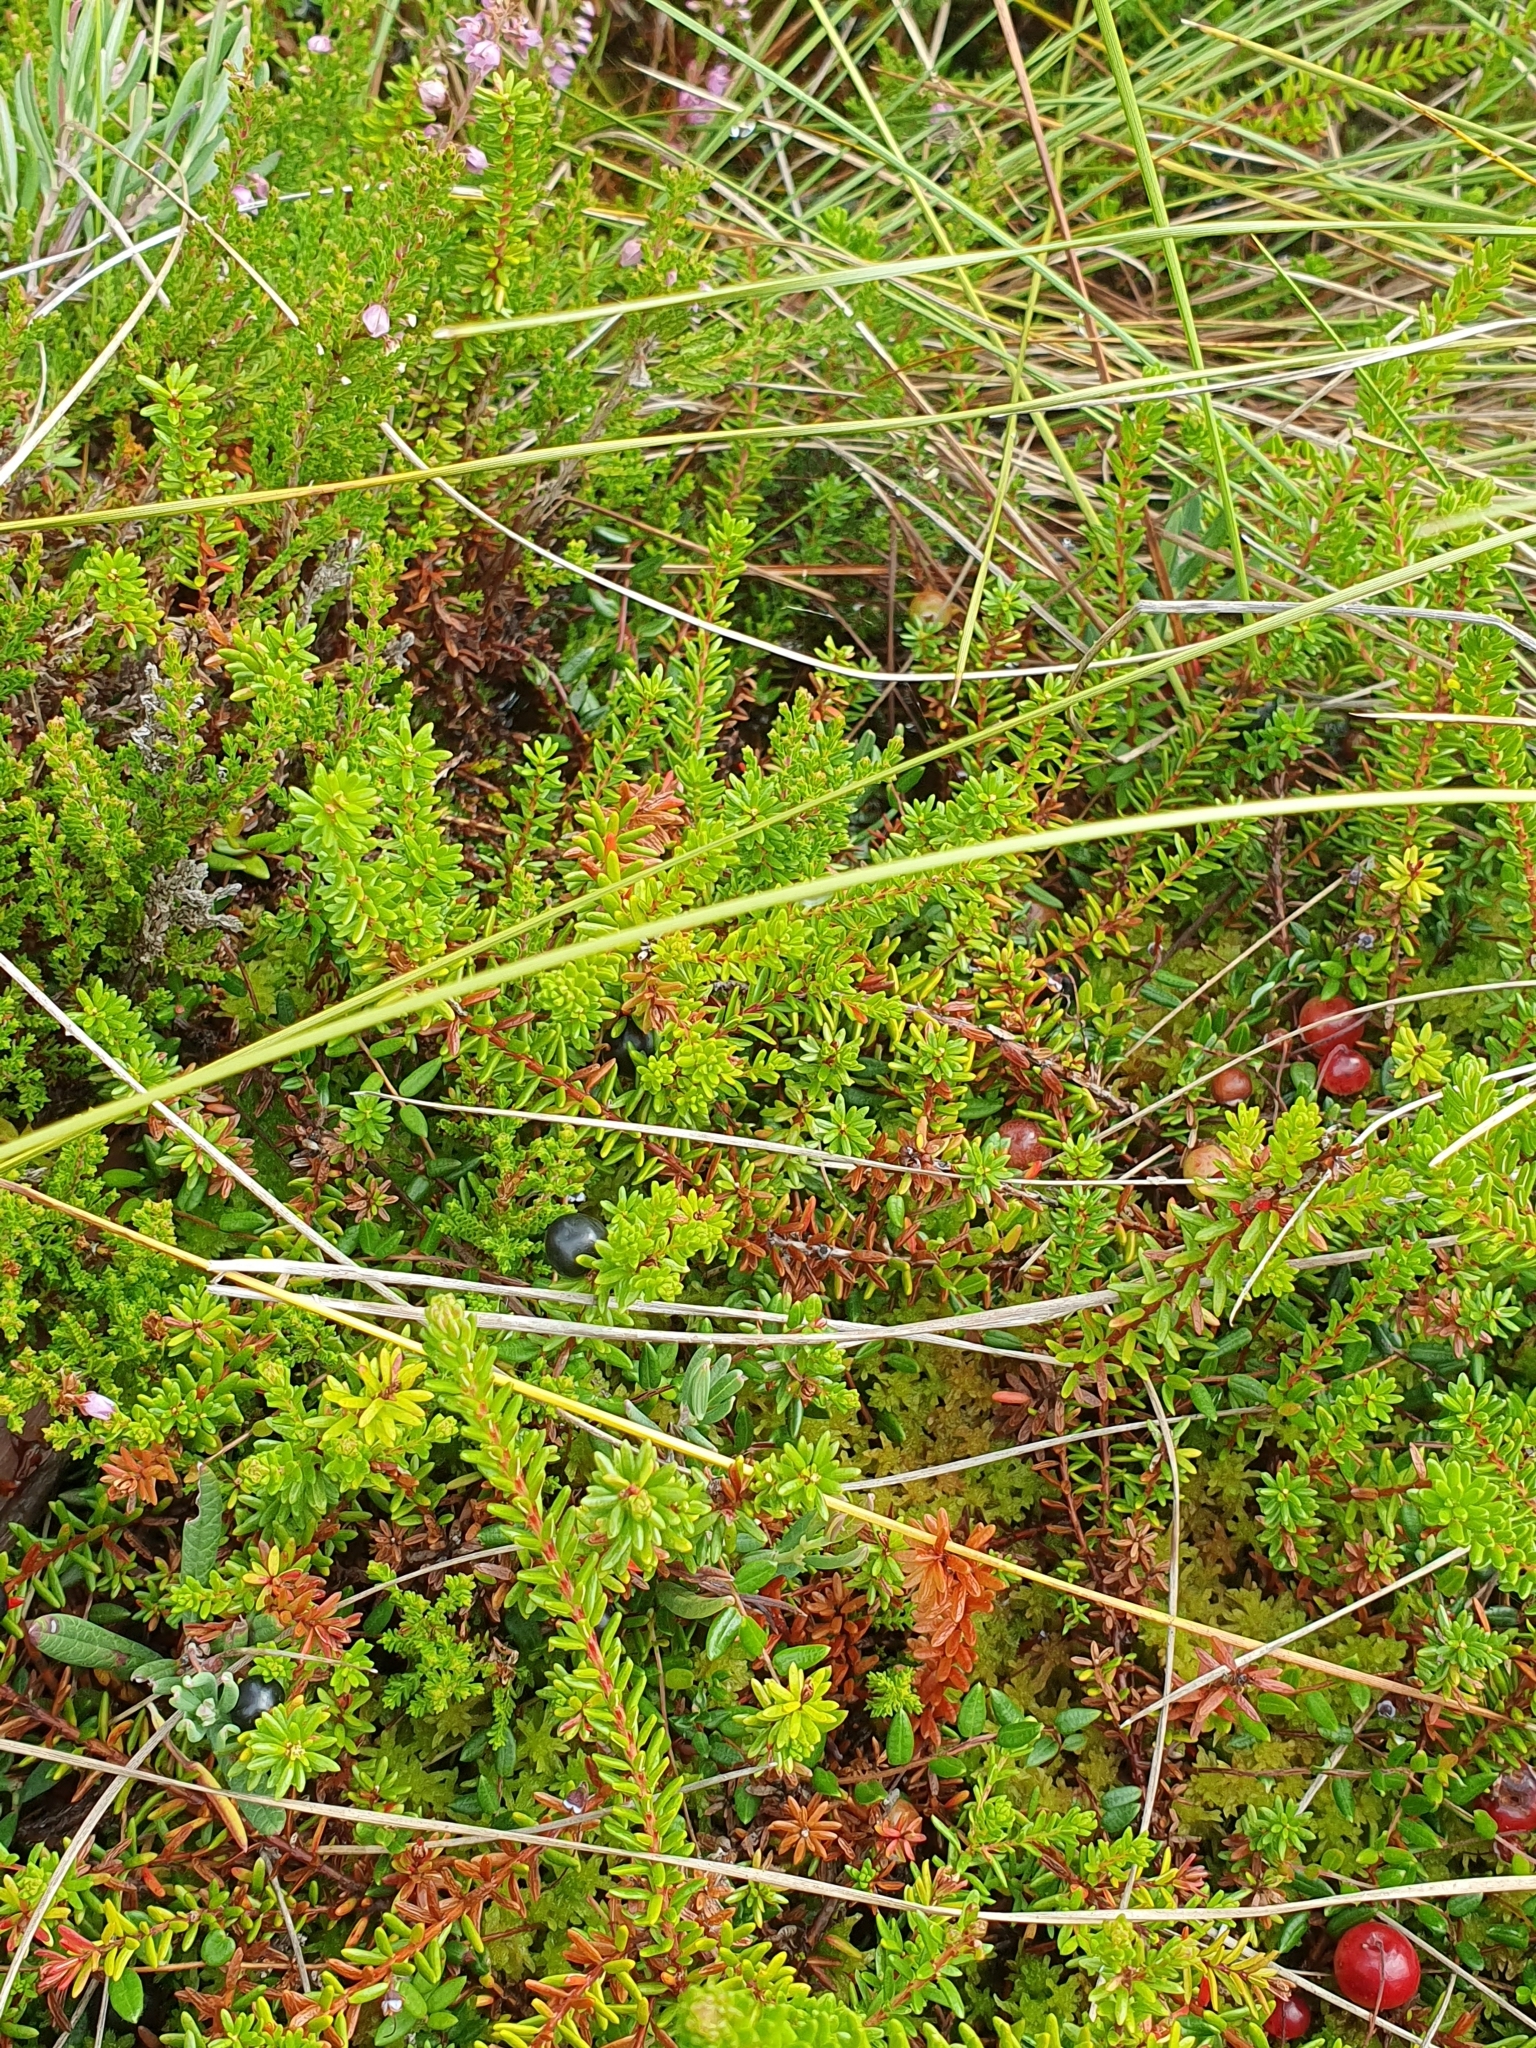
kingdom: Plantae
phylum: Tracheophyta
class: Magnoliopsida
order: Ericales
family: Ericaceae
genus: Empetrum
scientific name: Empetrum nigrum
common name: Black crowberry
